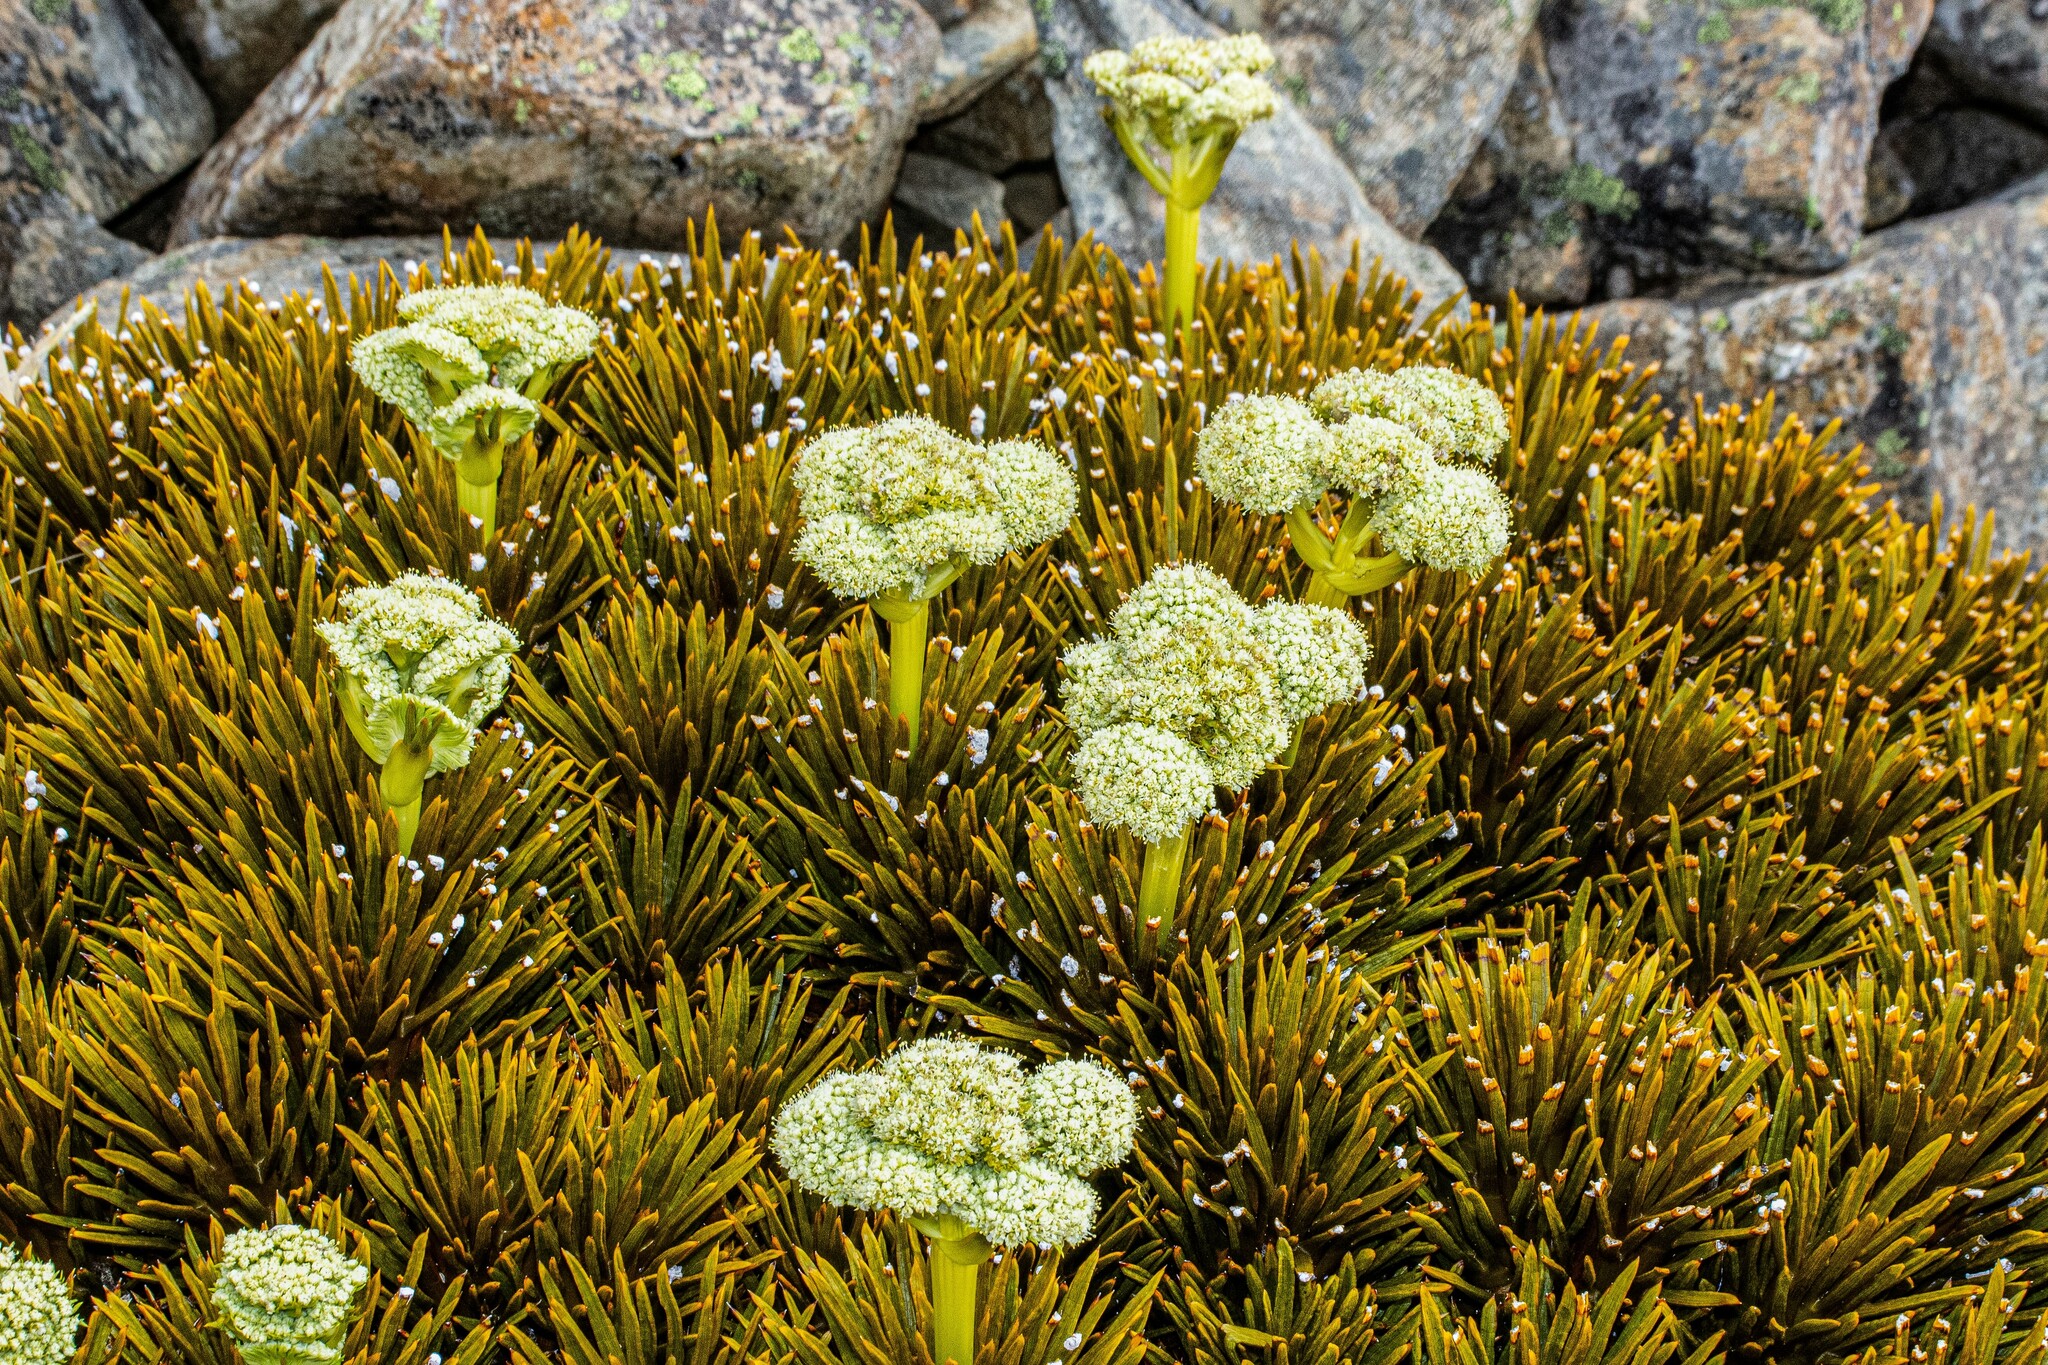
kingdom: Plantae
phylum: Tracheophyta
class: Magnoliopsida
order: Apiales
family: Apiaceae
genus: Aciphylla
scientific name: Aciphylla dobsonii
